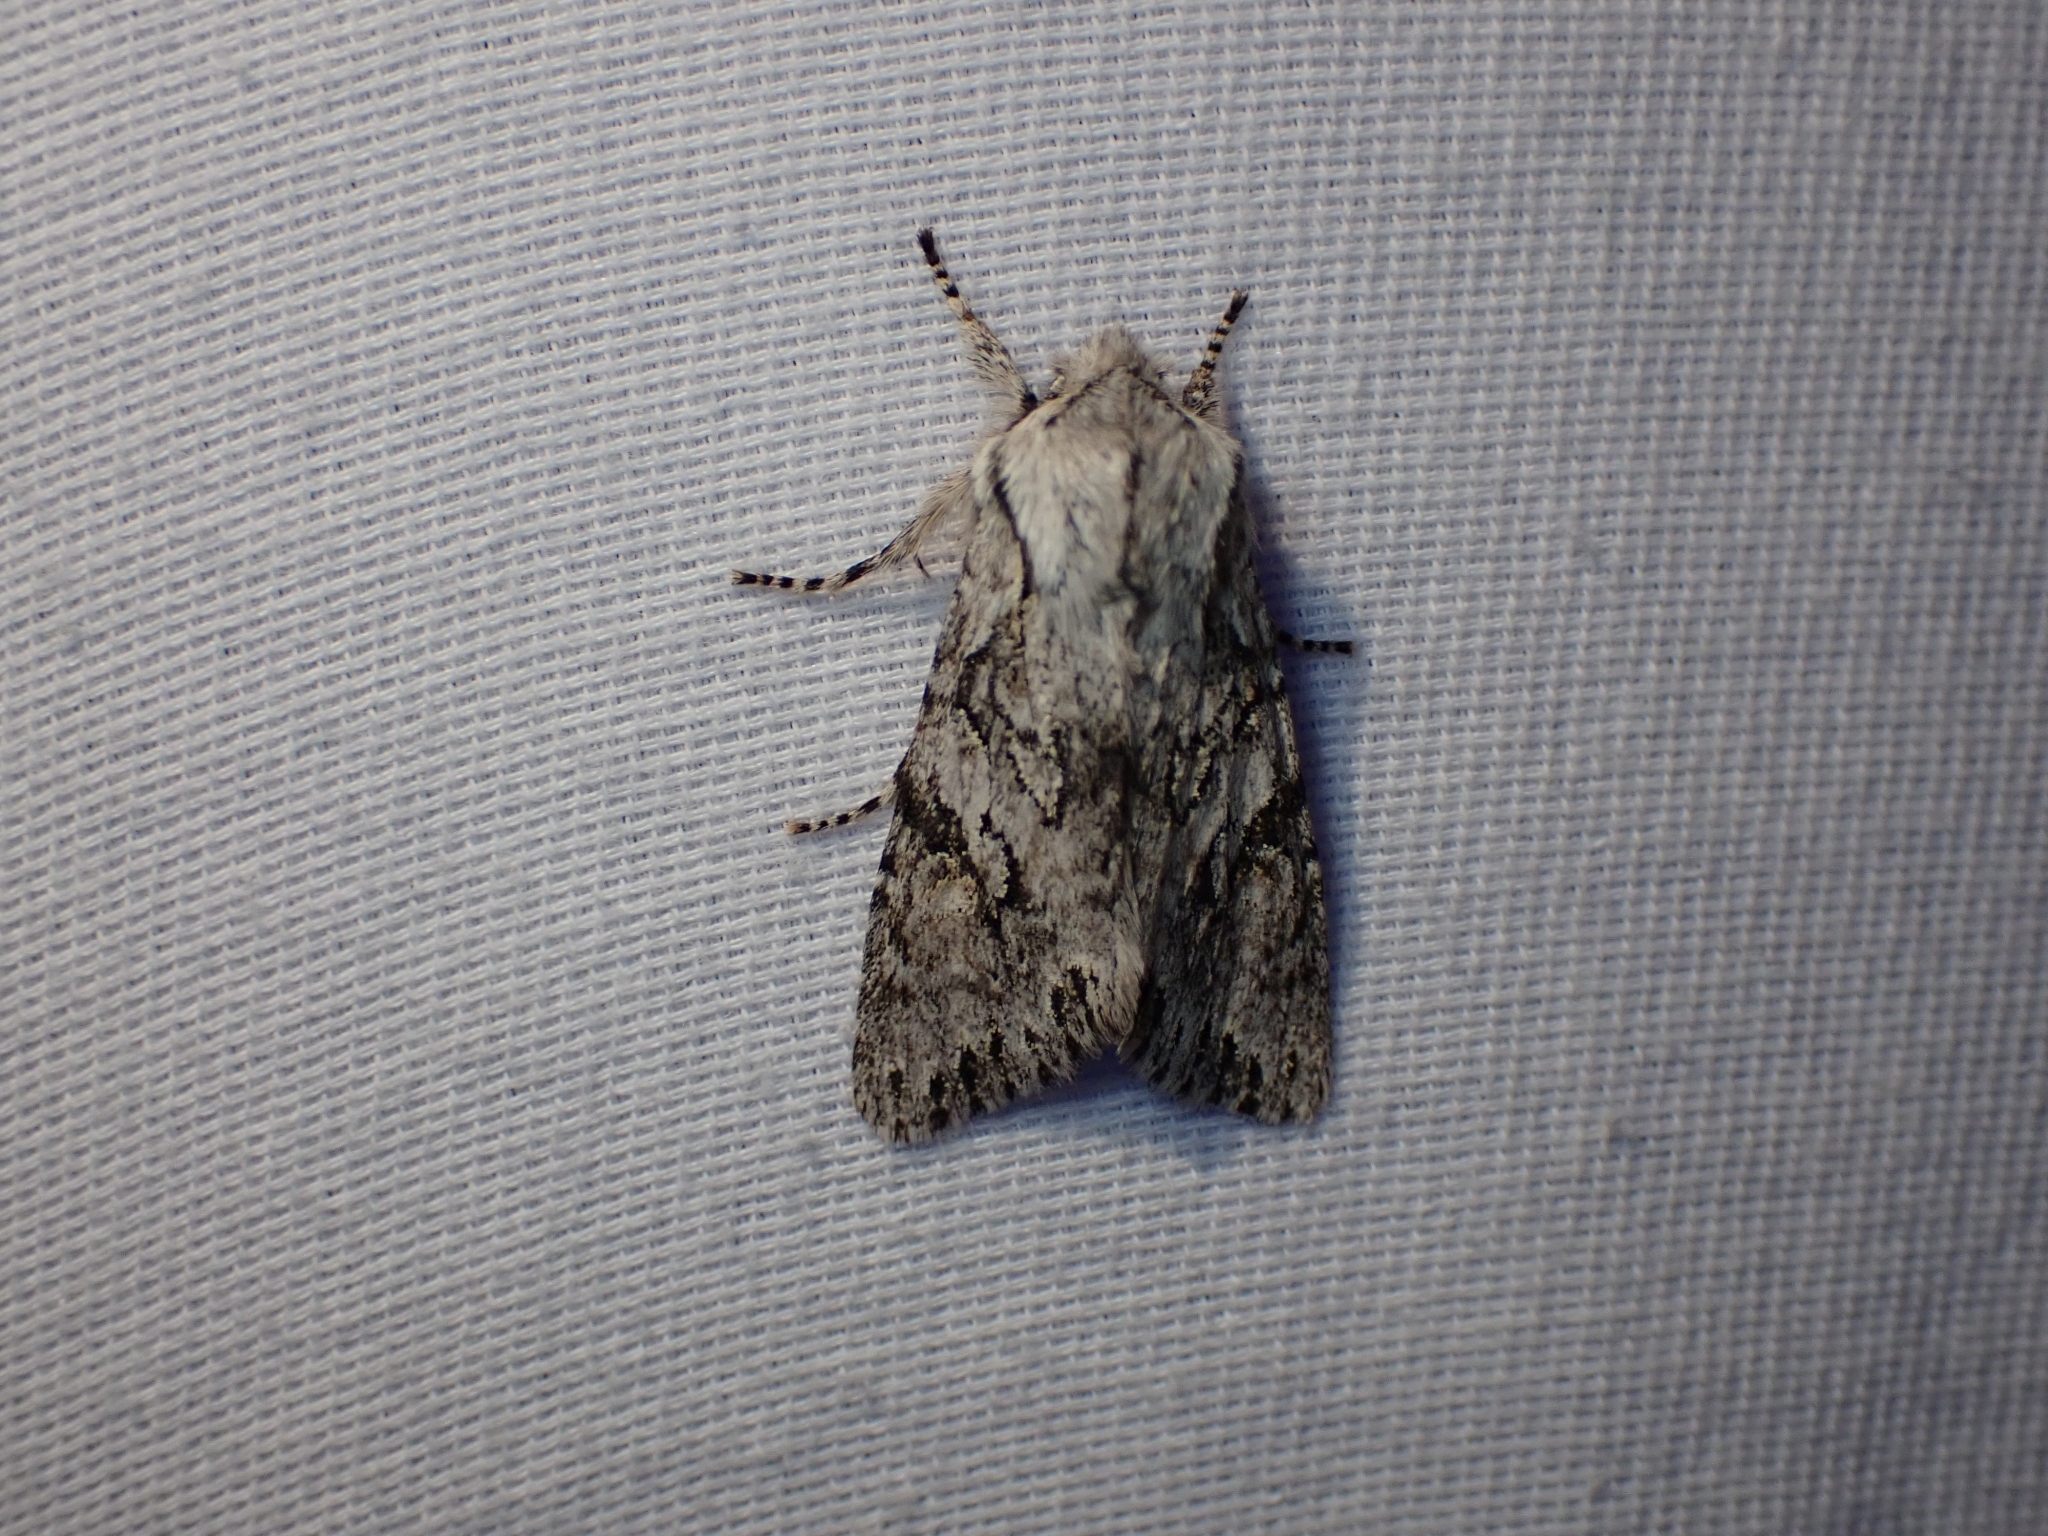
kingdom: Animalia
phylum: Arthropoda
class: Insecta
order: Lepidoptera
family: Noctuidae
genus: Egira
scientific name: Egira simplex
